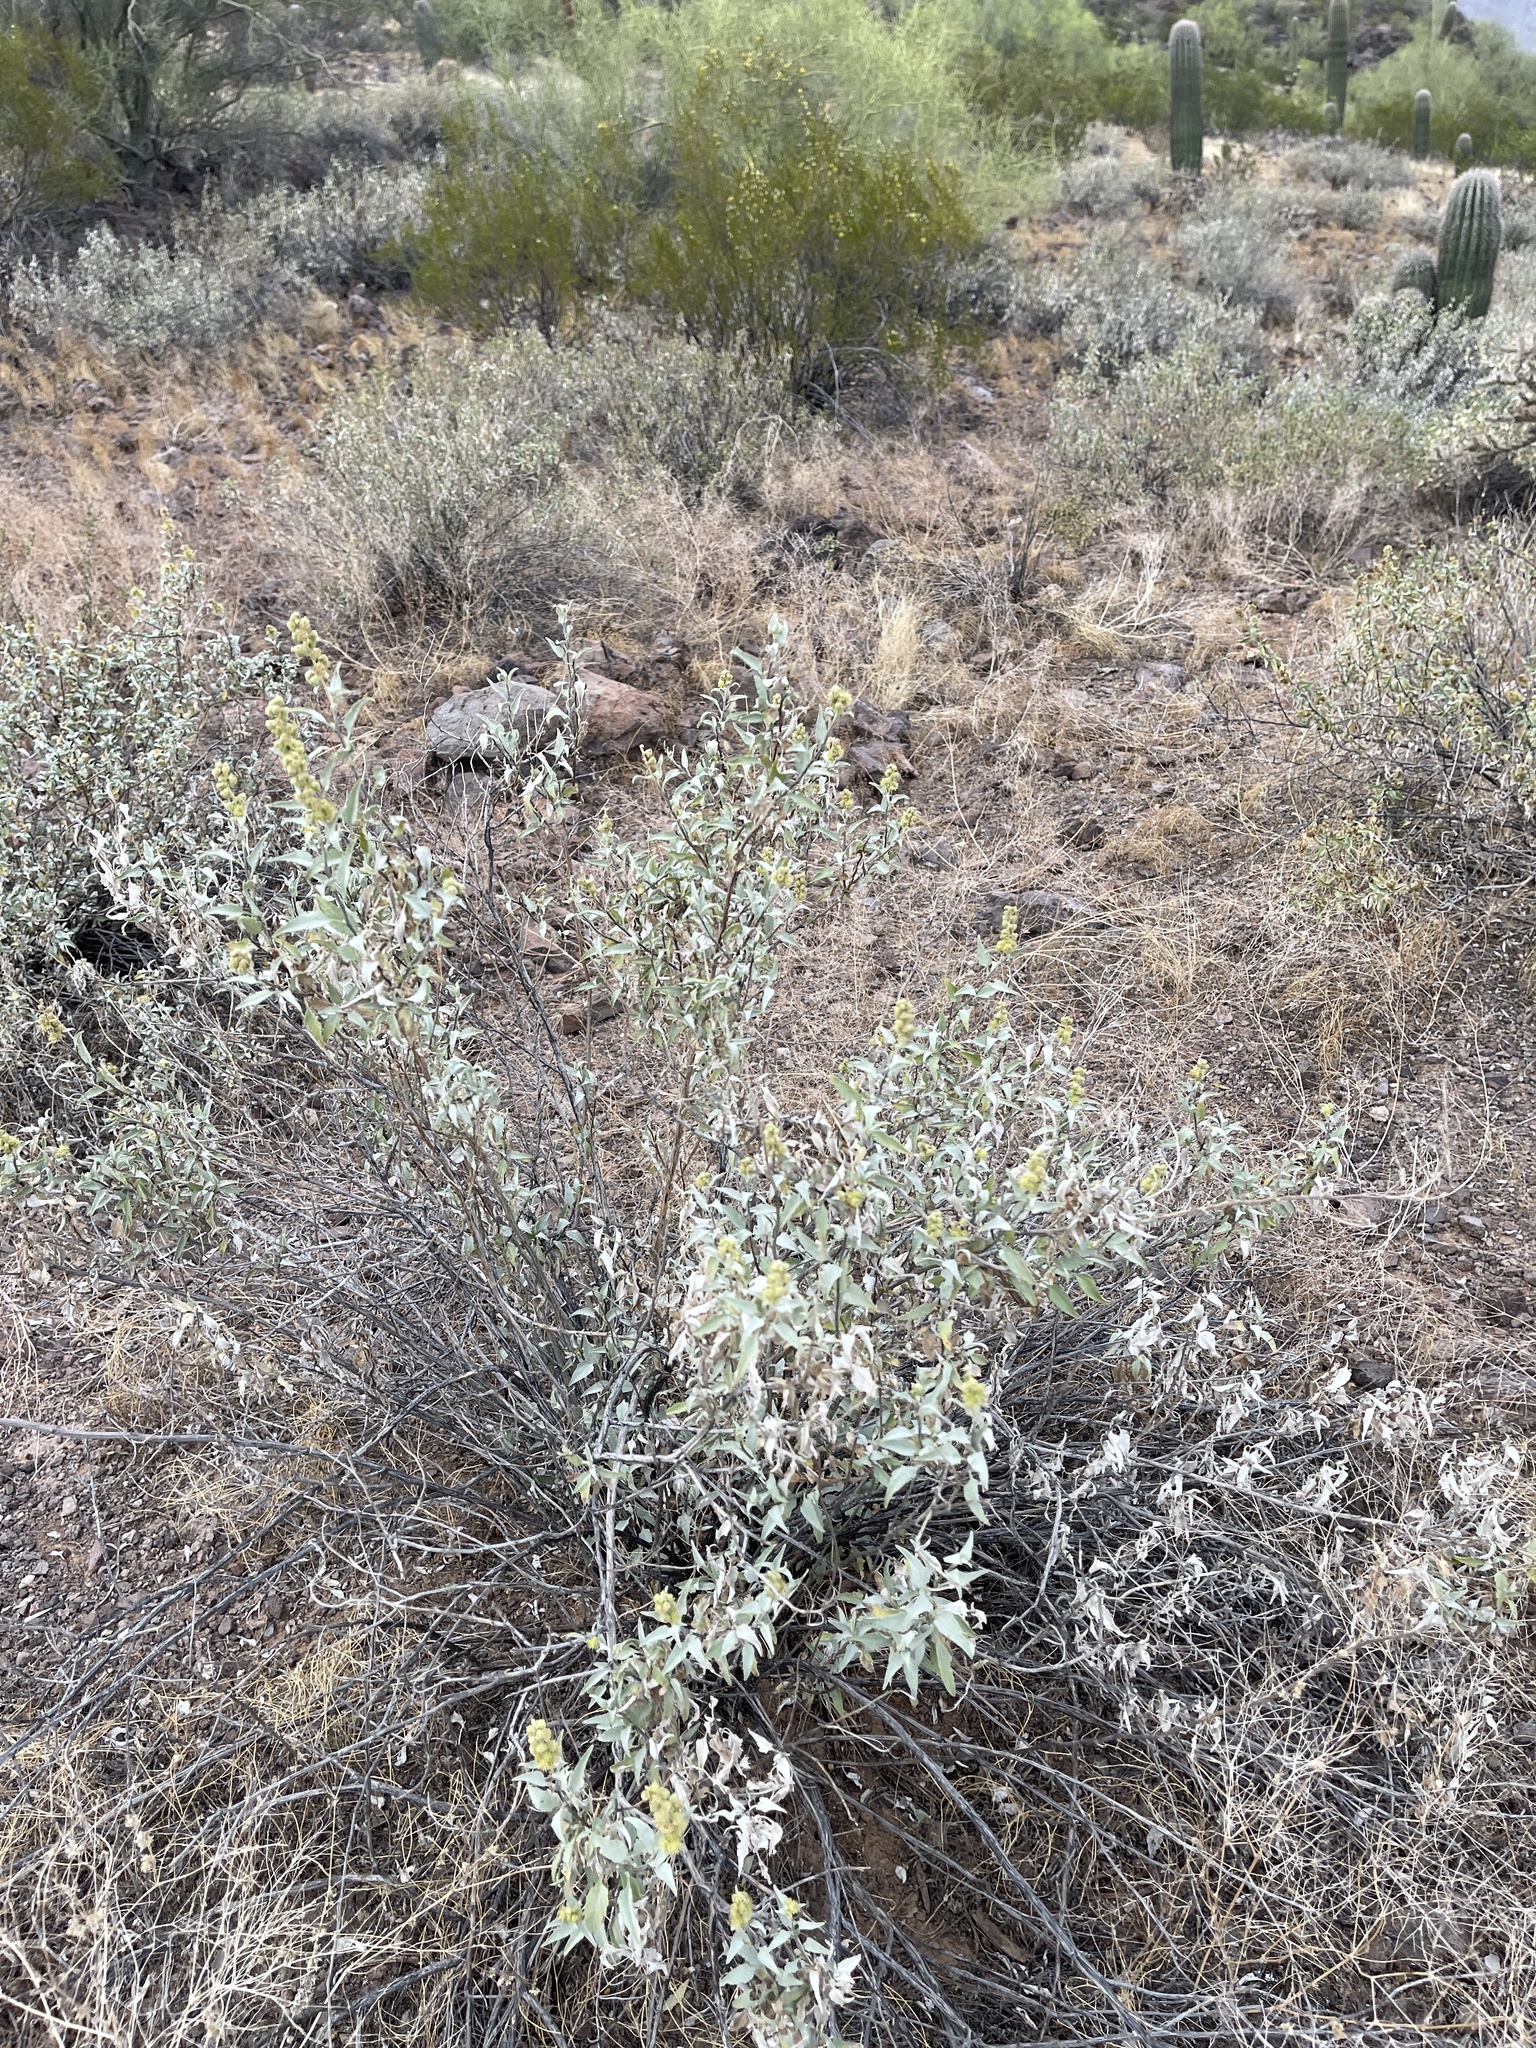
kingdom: Plantae
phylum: Tracheophyta
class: Magnoliopsida
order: Asterales
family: Asteraceae
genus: Ambrosia
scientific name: Ambrosia deltoidea
